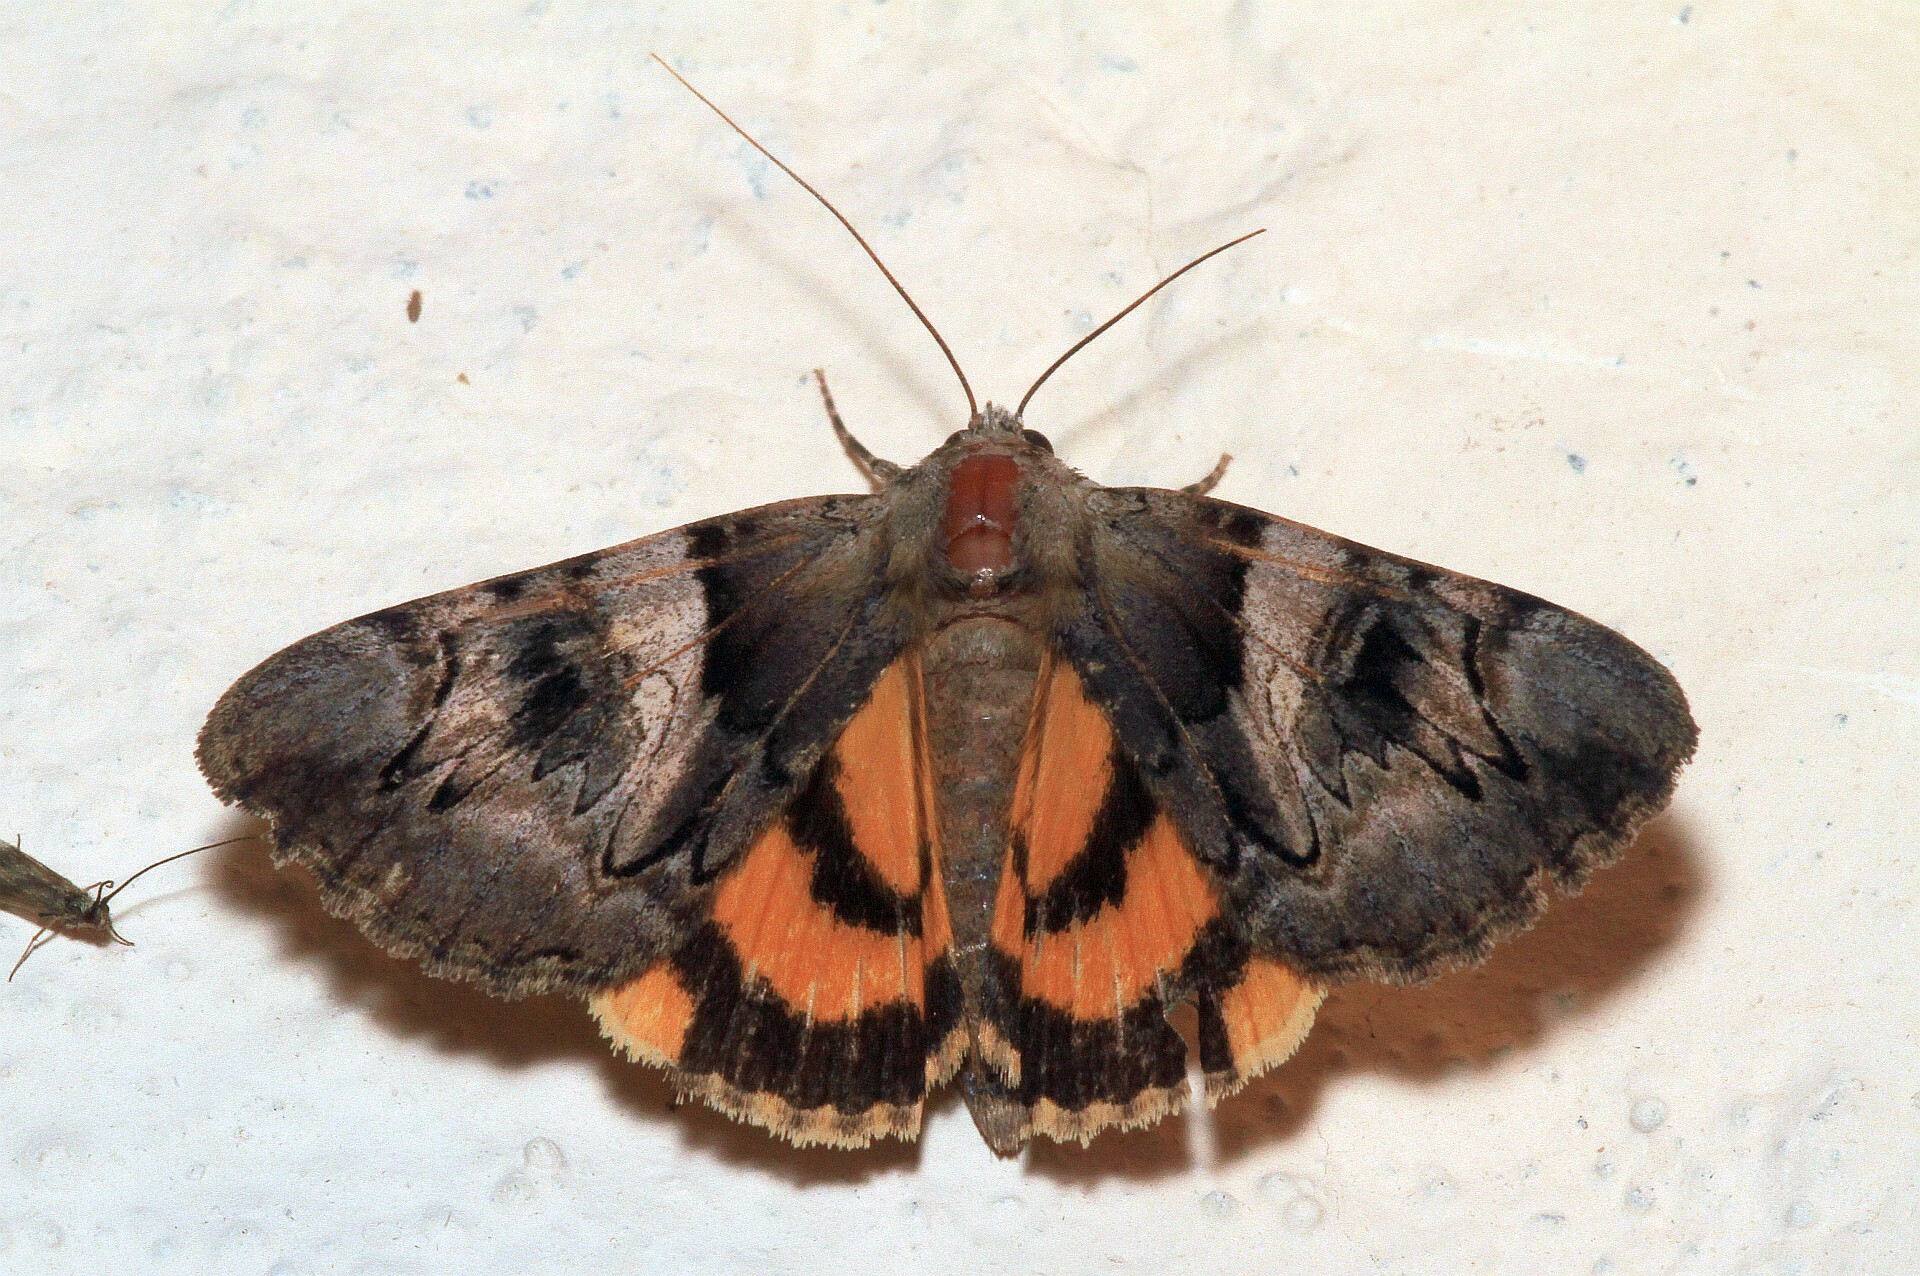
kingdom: Animalia
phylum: Arthropoda
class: Insecta
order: Lepidoptera
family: Erebidae
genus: Catocala
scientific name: Catocala fulminea
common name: Yellow bands underwing
